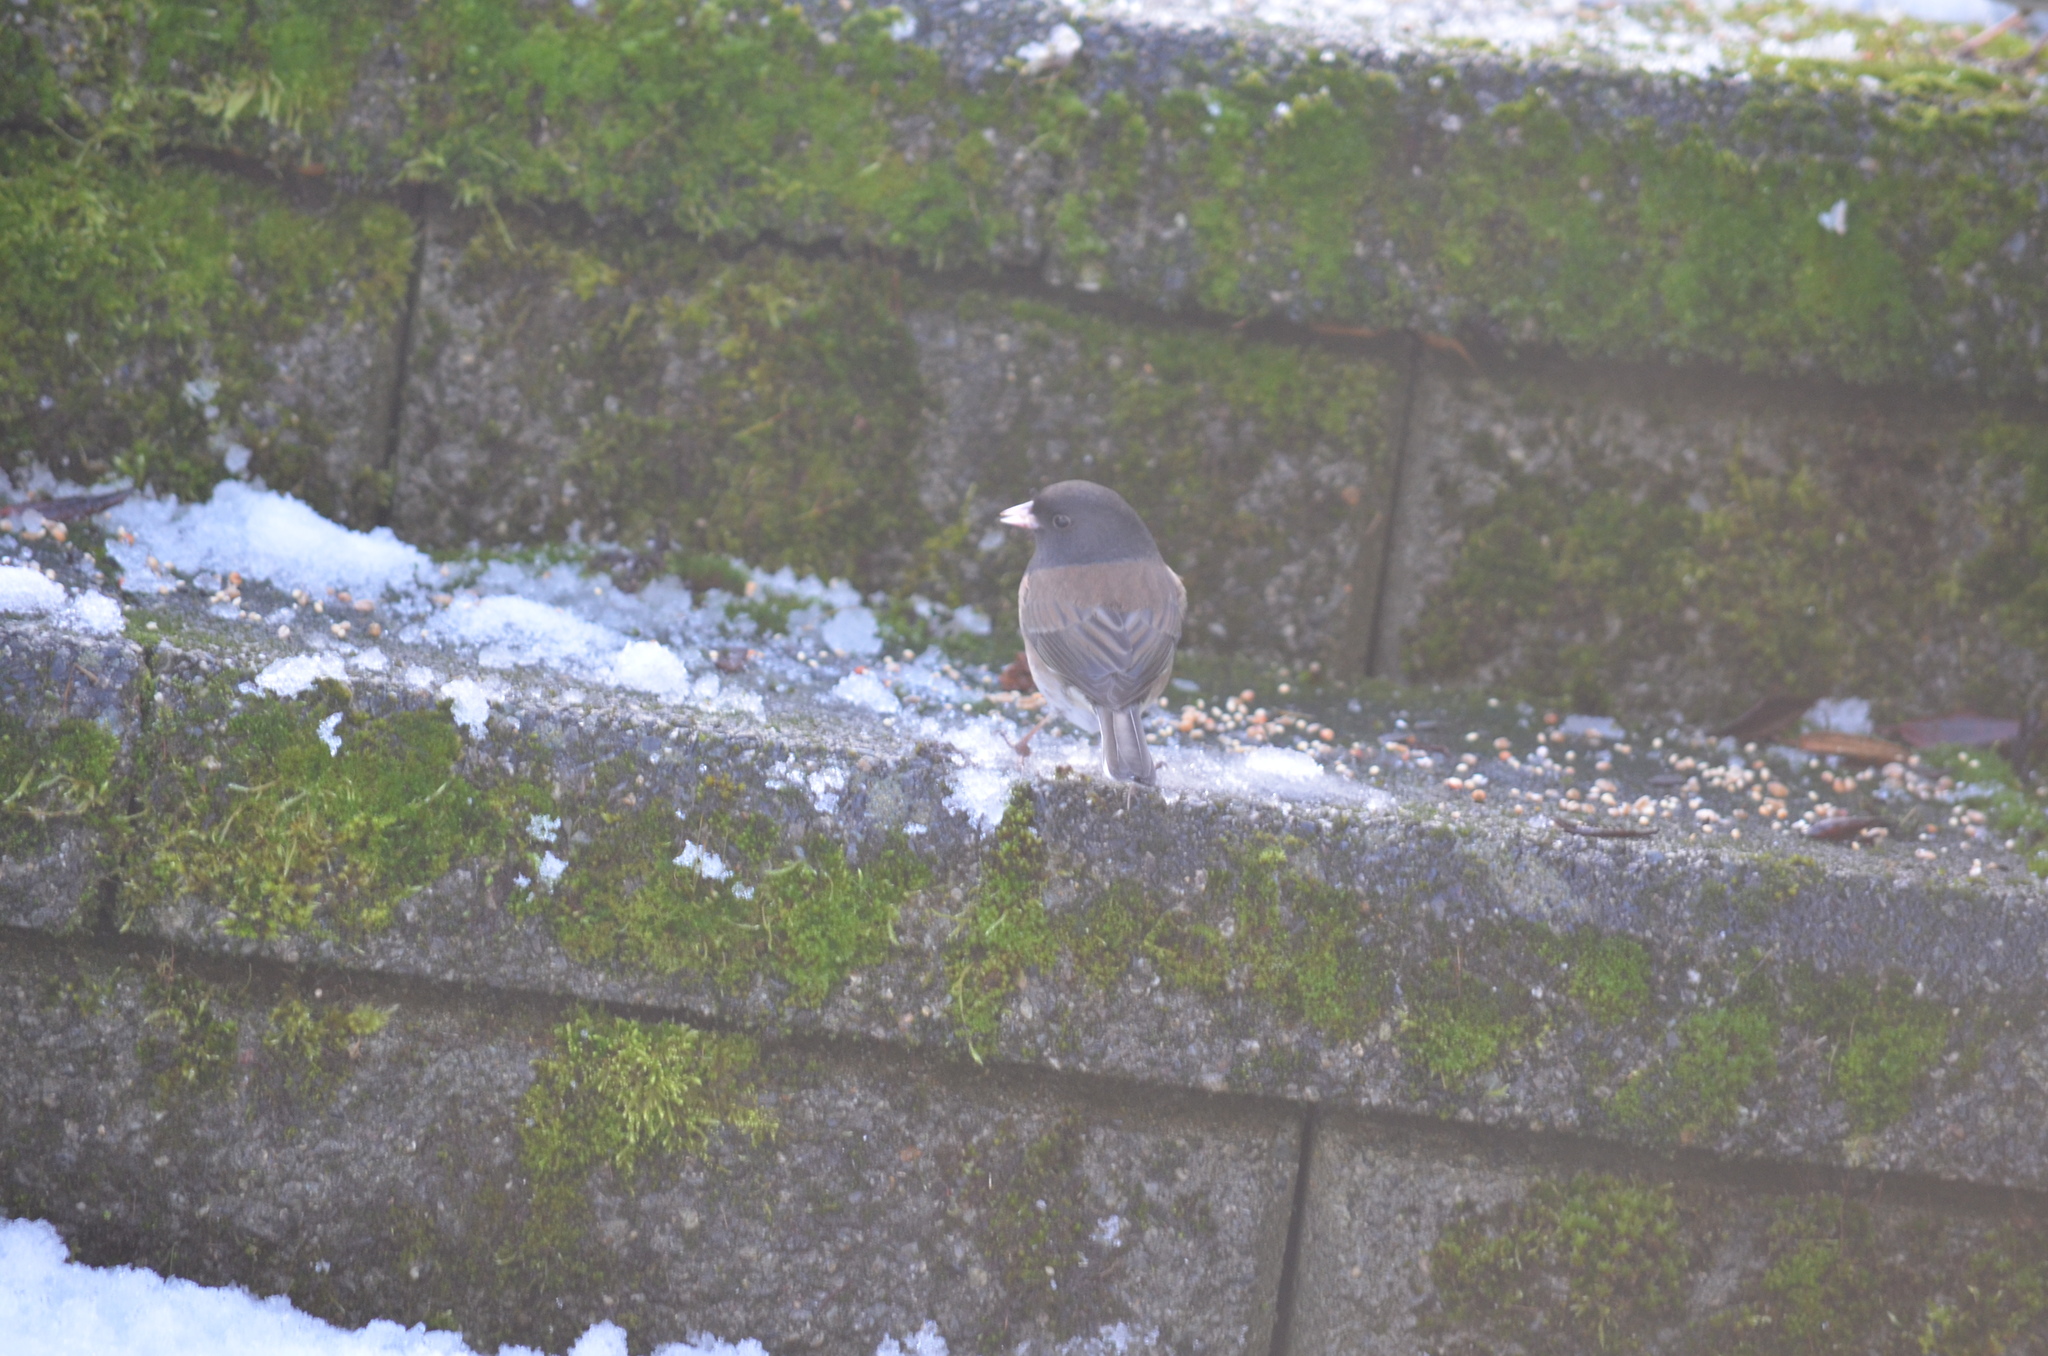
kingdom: Animalia
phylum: Chordata
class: Aves
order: Passeriformes
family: Passerellidae
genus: Junco
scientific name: Junco hyemalis
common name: Dark-eyed junco
